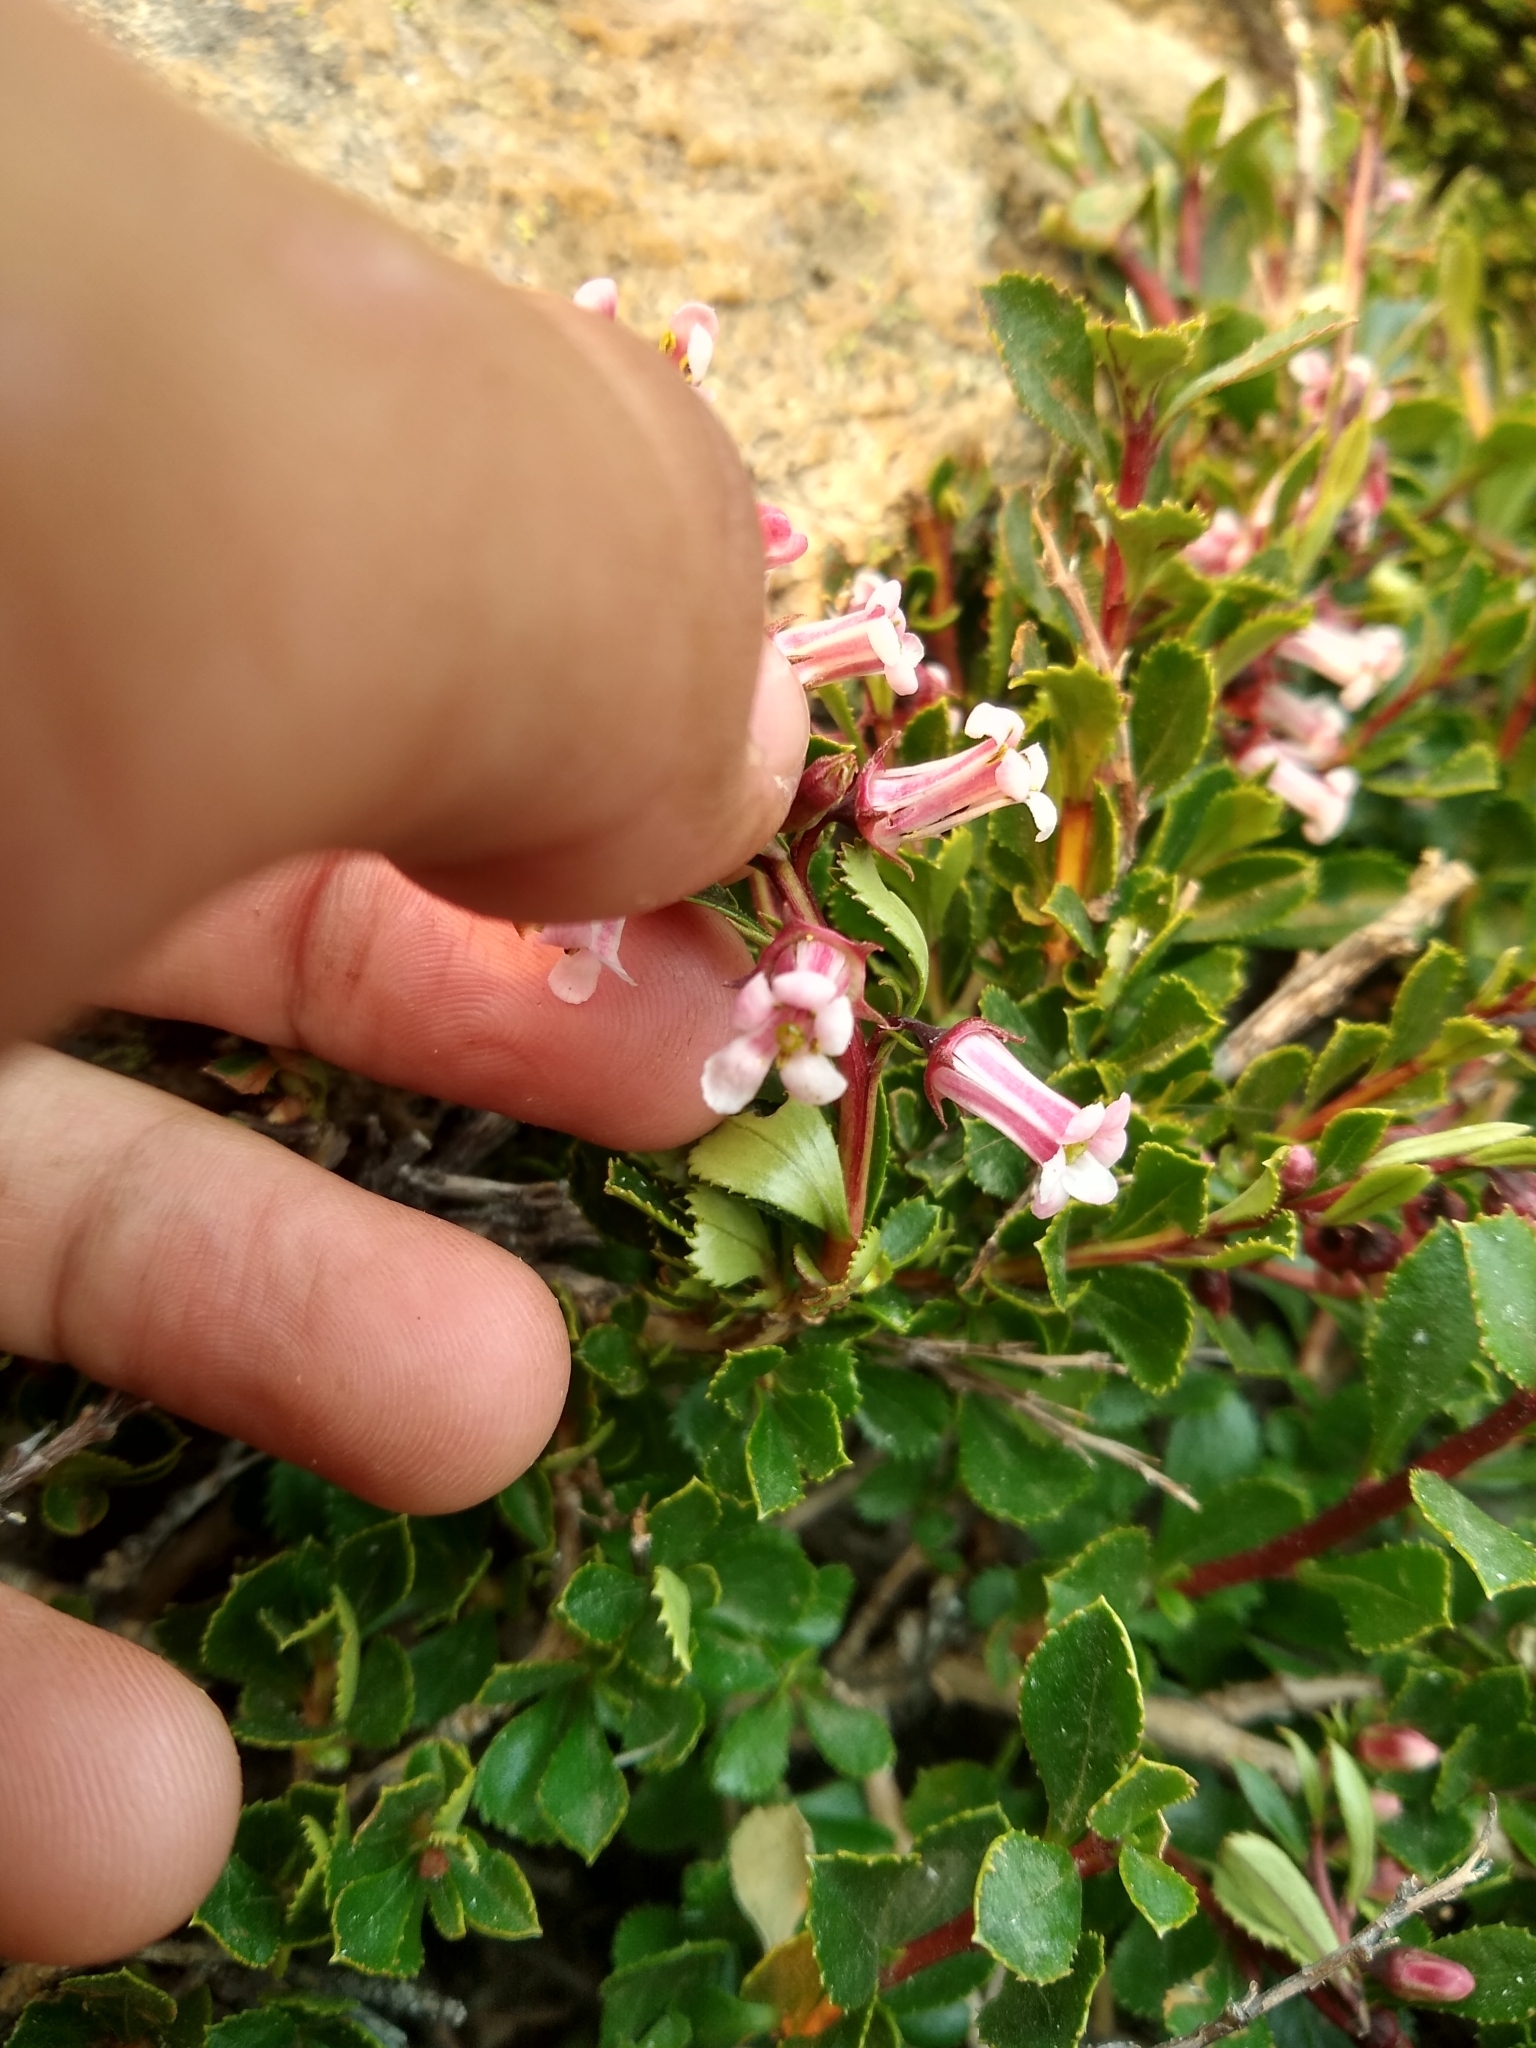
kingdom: Plantae
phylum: Tracheophyta
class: Magnoliopsida
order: Escalloniales
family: Escalloniaceae
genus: Escallonia
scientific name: Escallonia alpina
